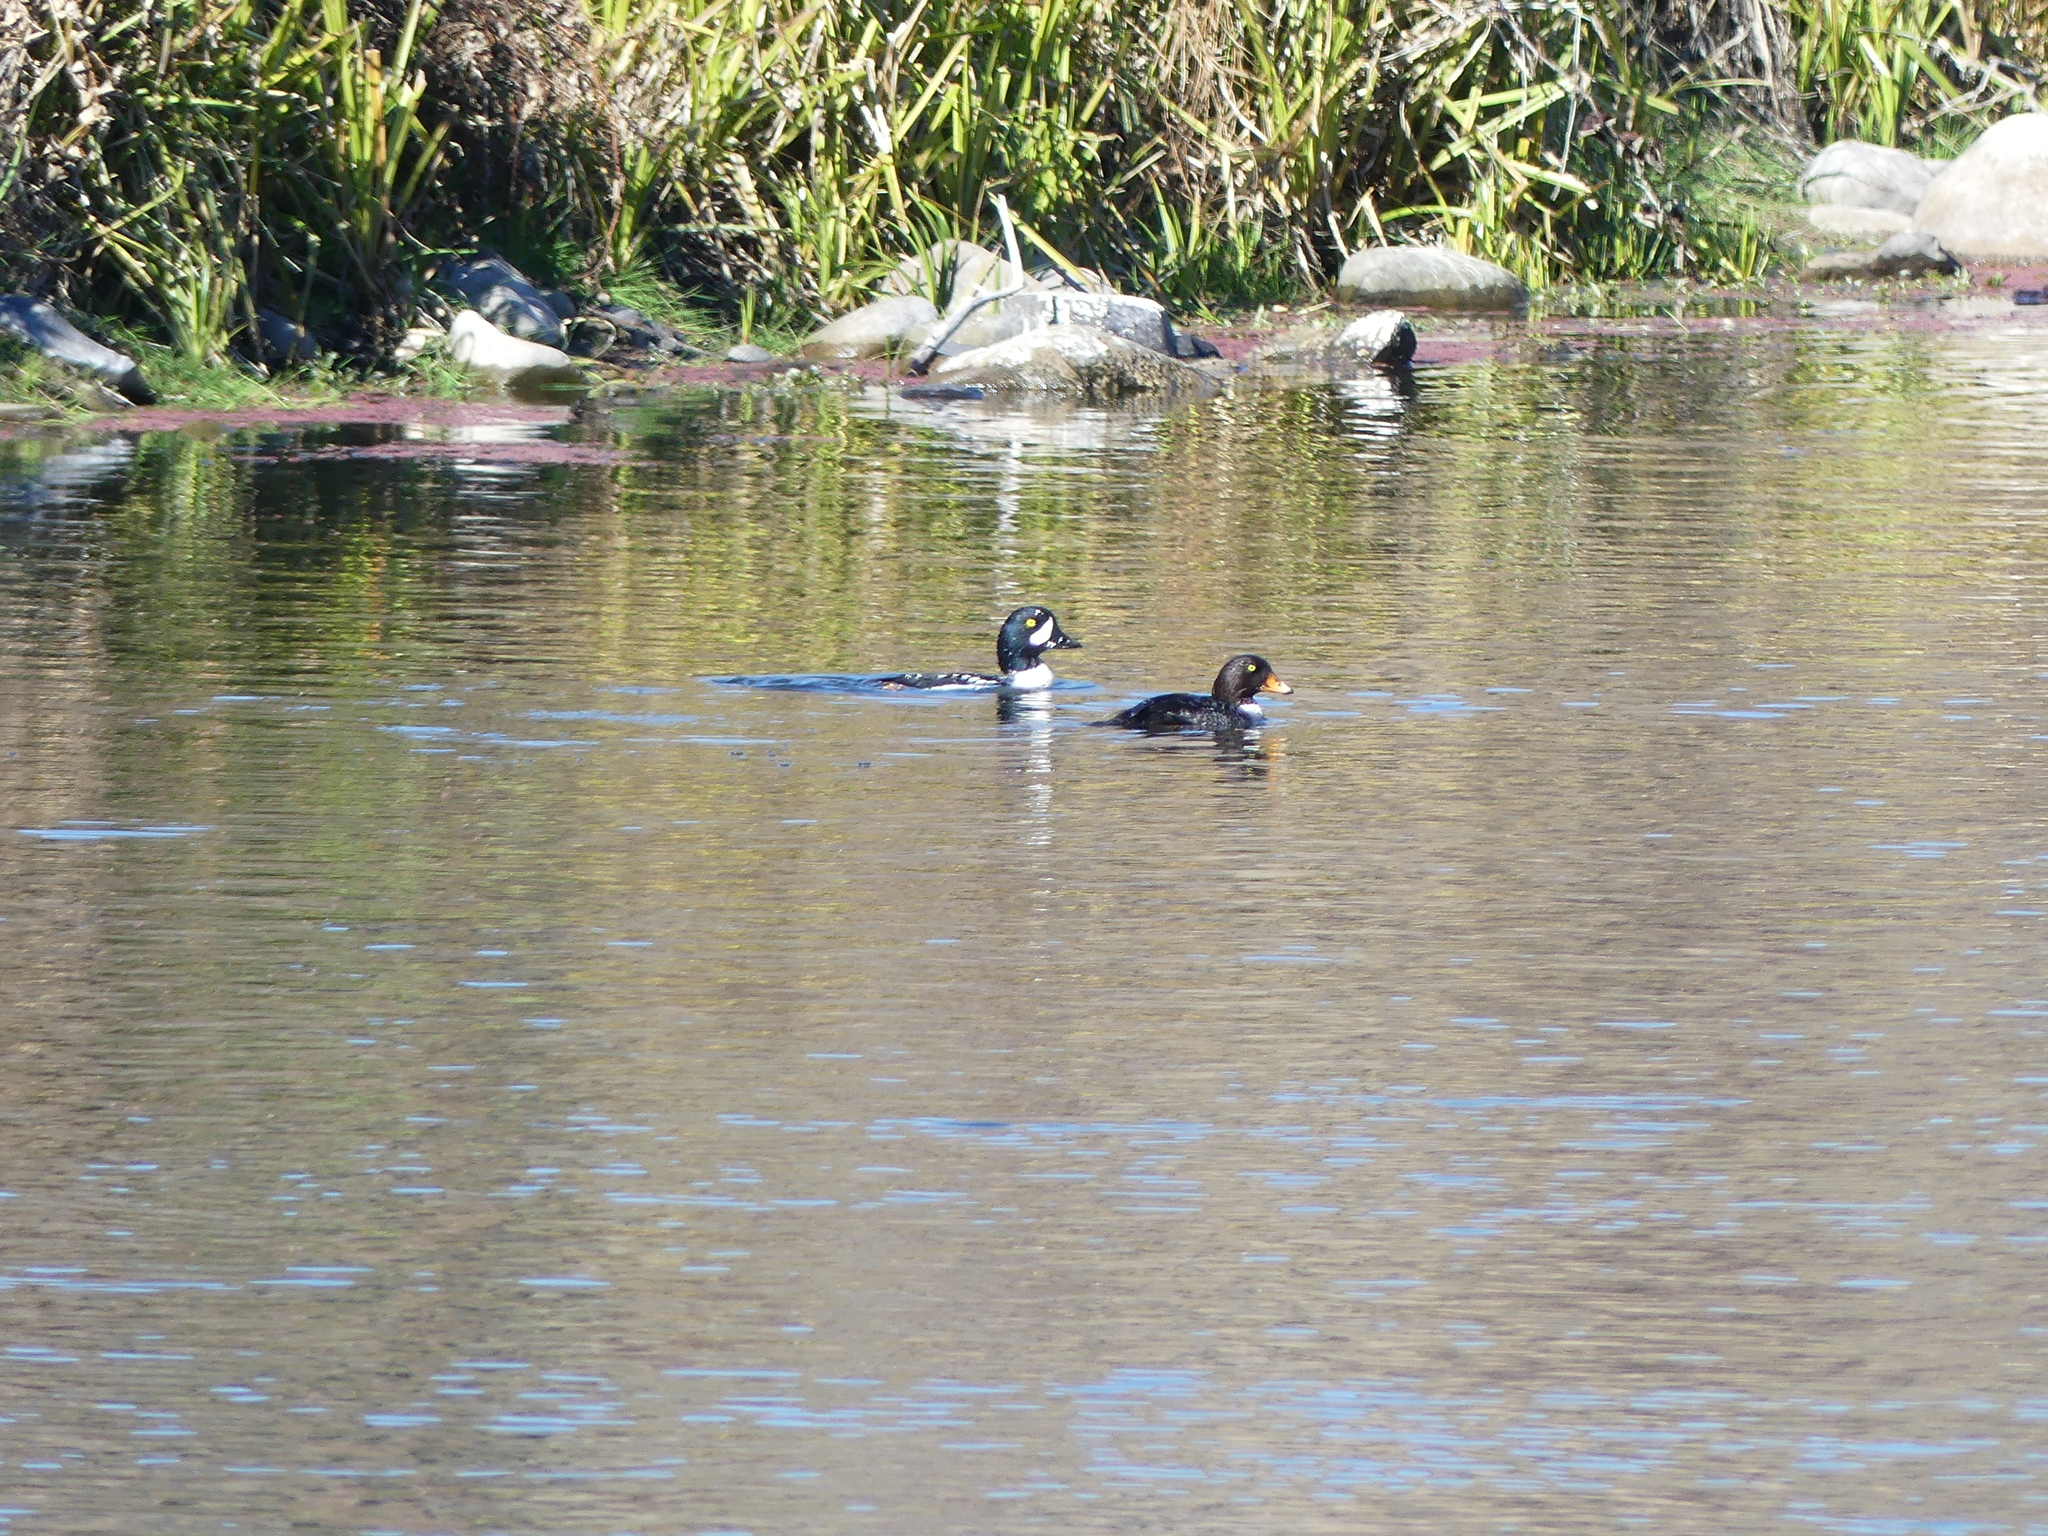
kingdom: Animalia
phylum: Chordata
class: Aves
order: Anseriformes
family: Anatidae
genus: Bucephala
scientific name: Bucephala islandica
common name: Barrow's goldeneye
